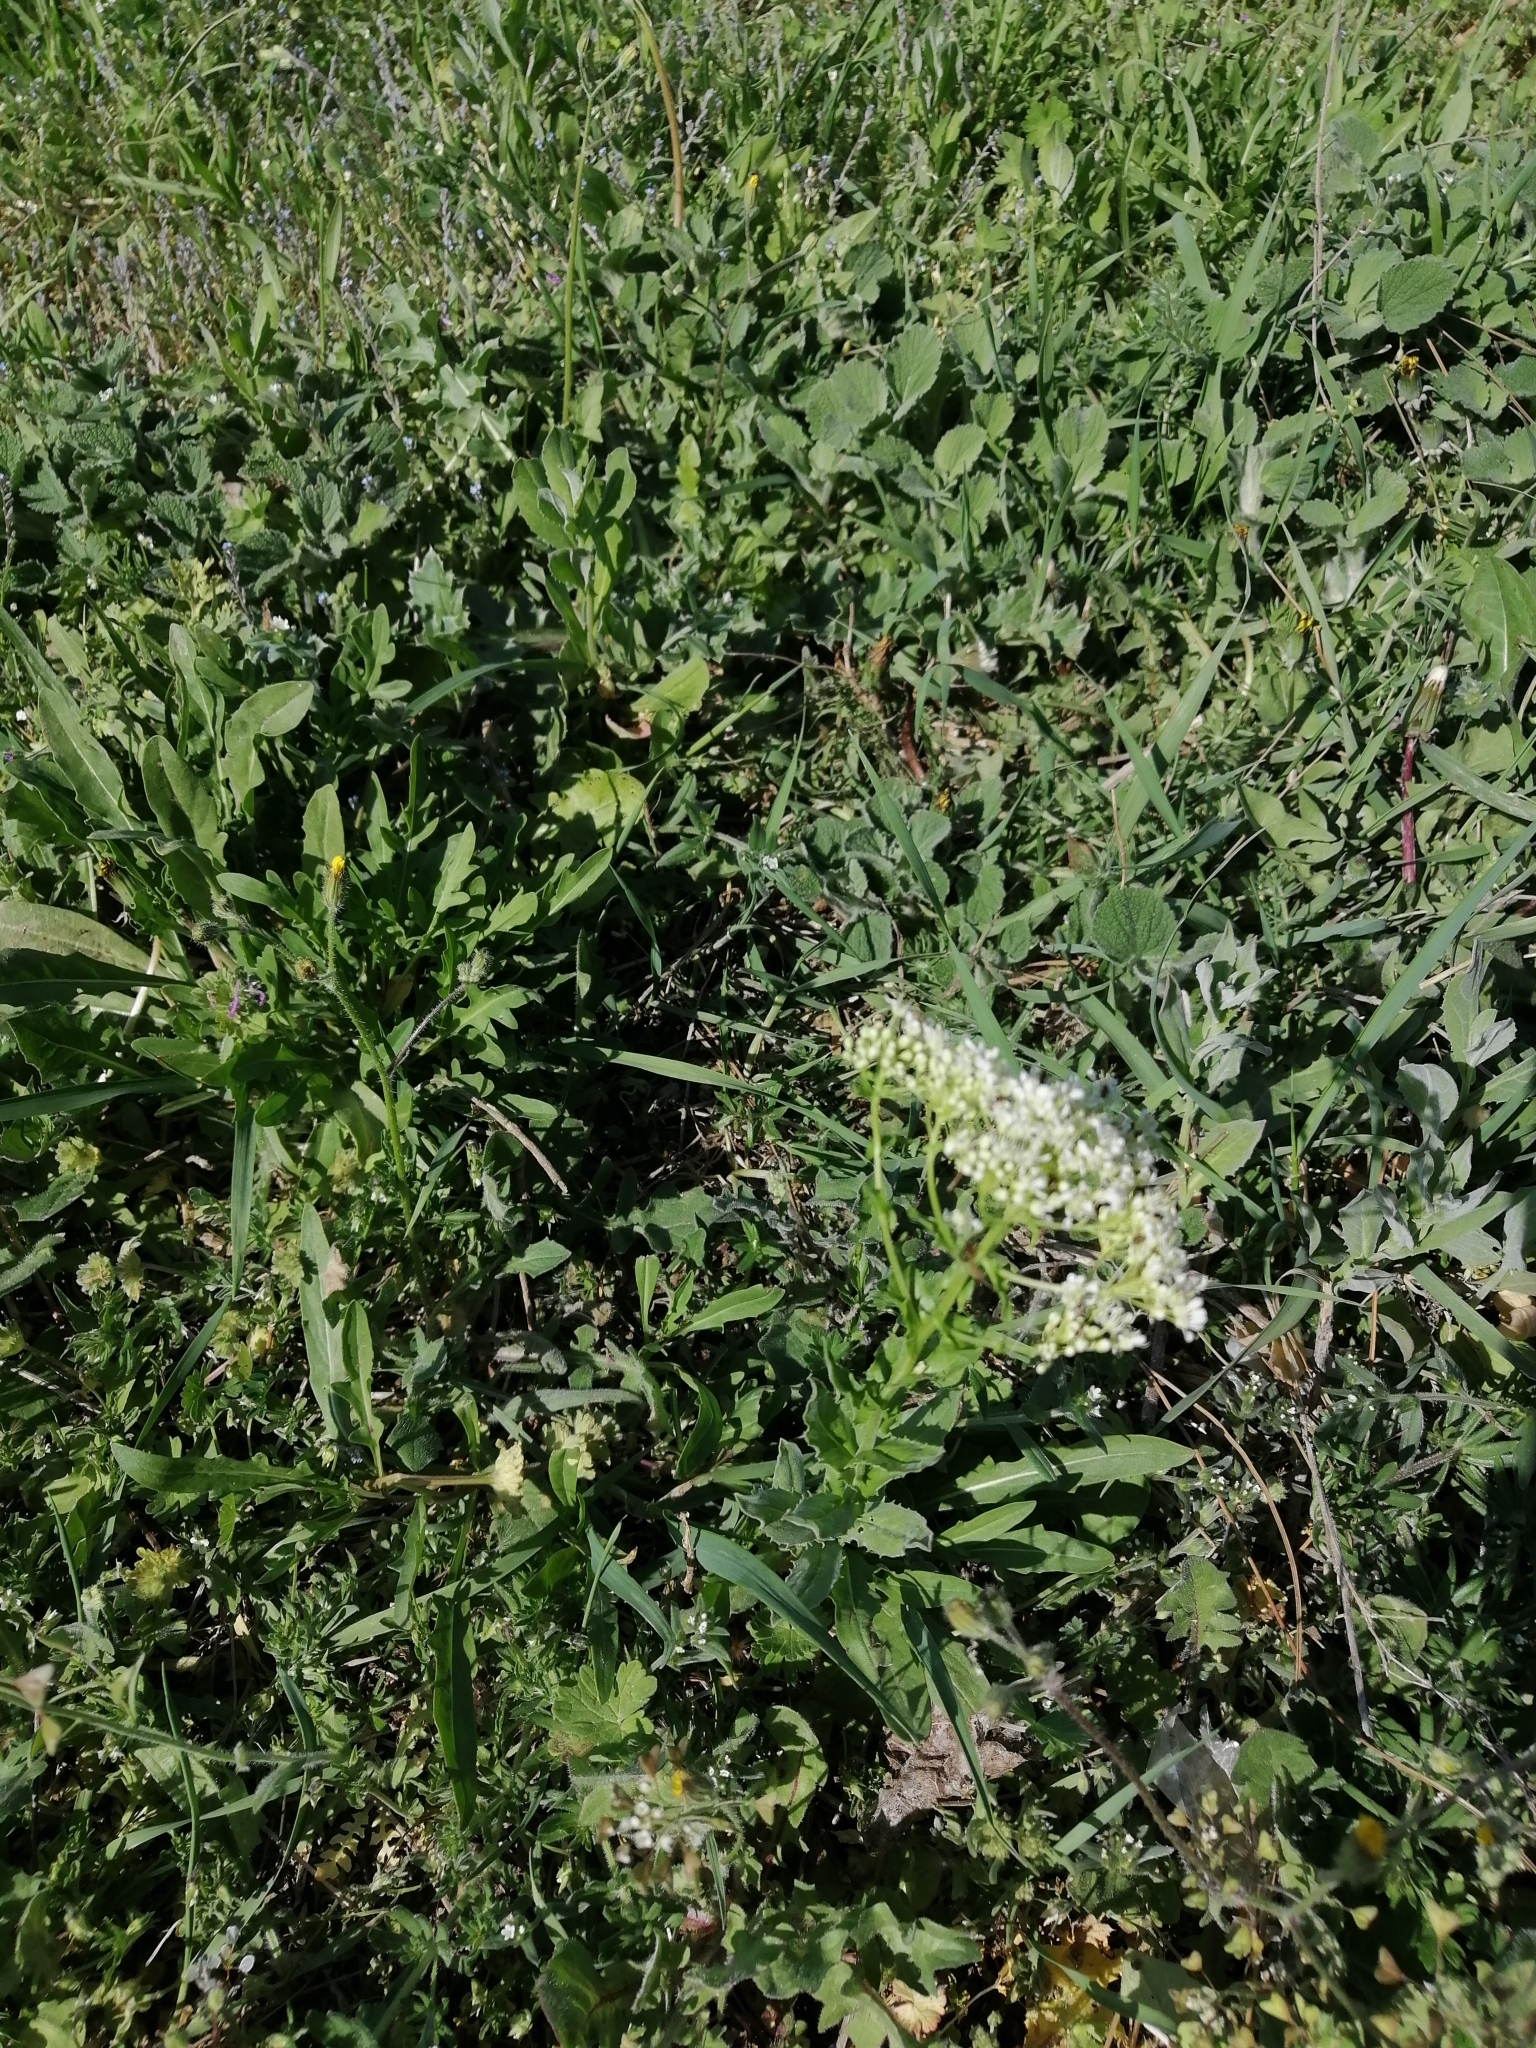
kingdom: Plantae
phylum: Tracheophyta
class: Magnoliopsida
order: Brassicales
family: Brassicaceae
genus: Lepidium
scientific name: Lepidium draba
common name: Hoary cress
